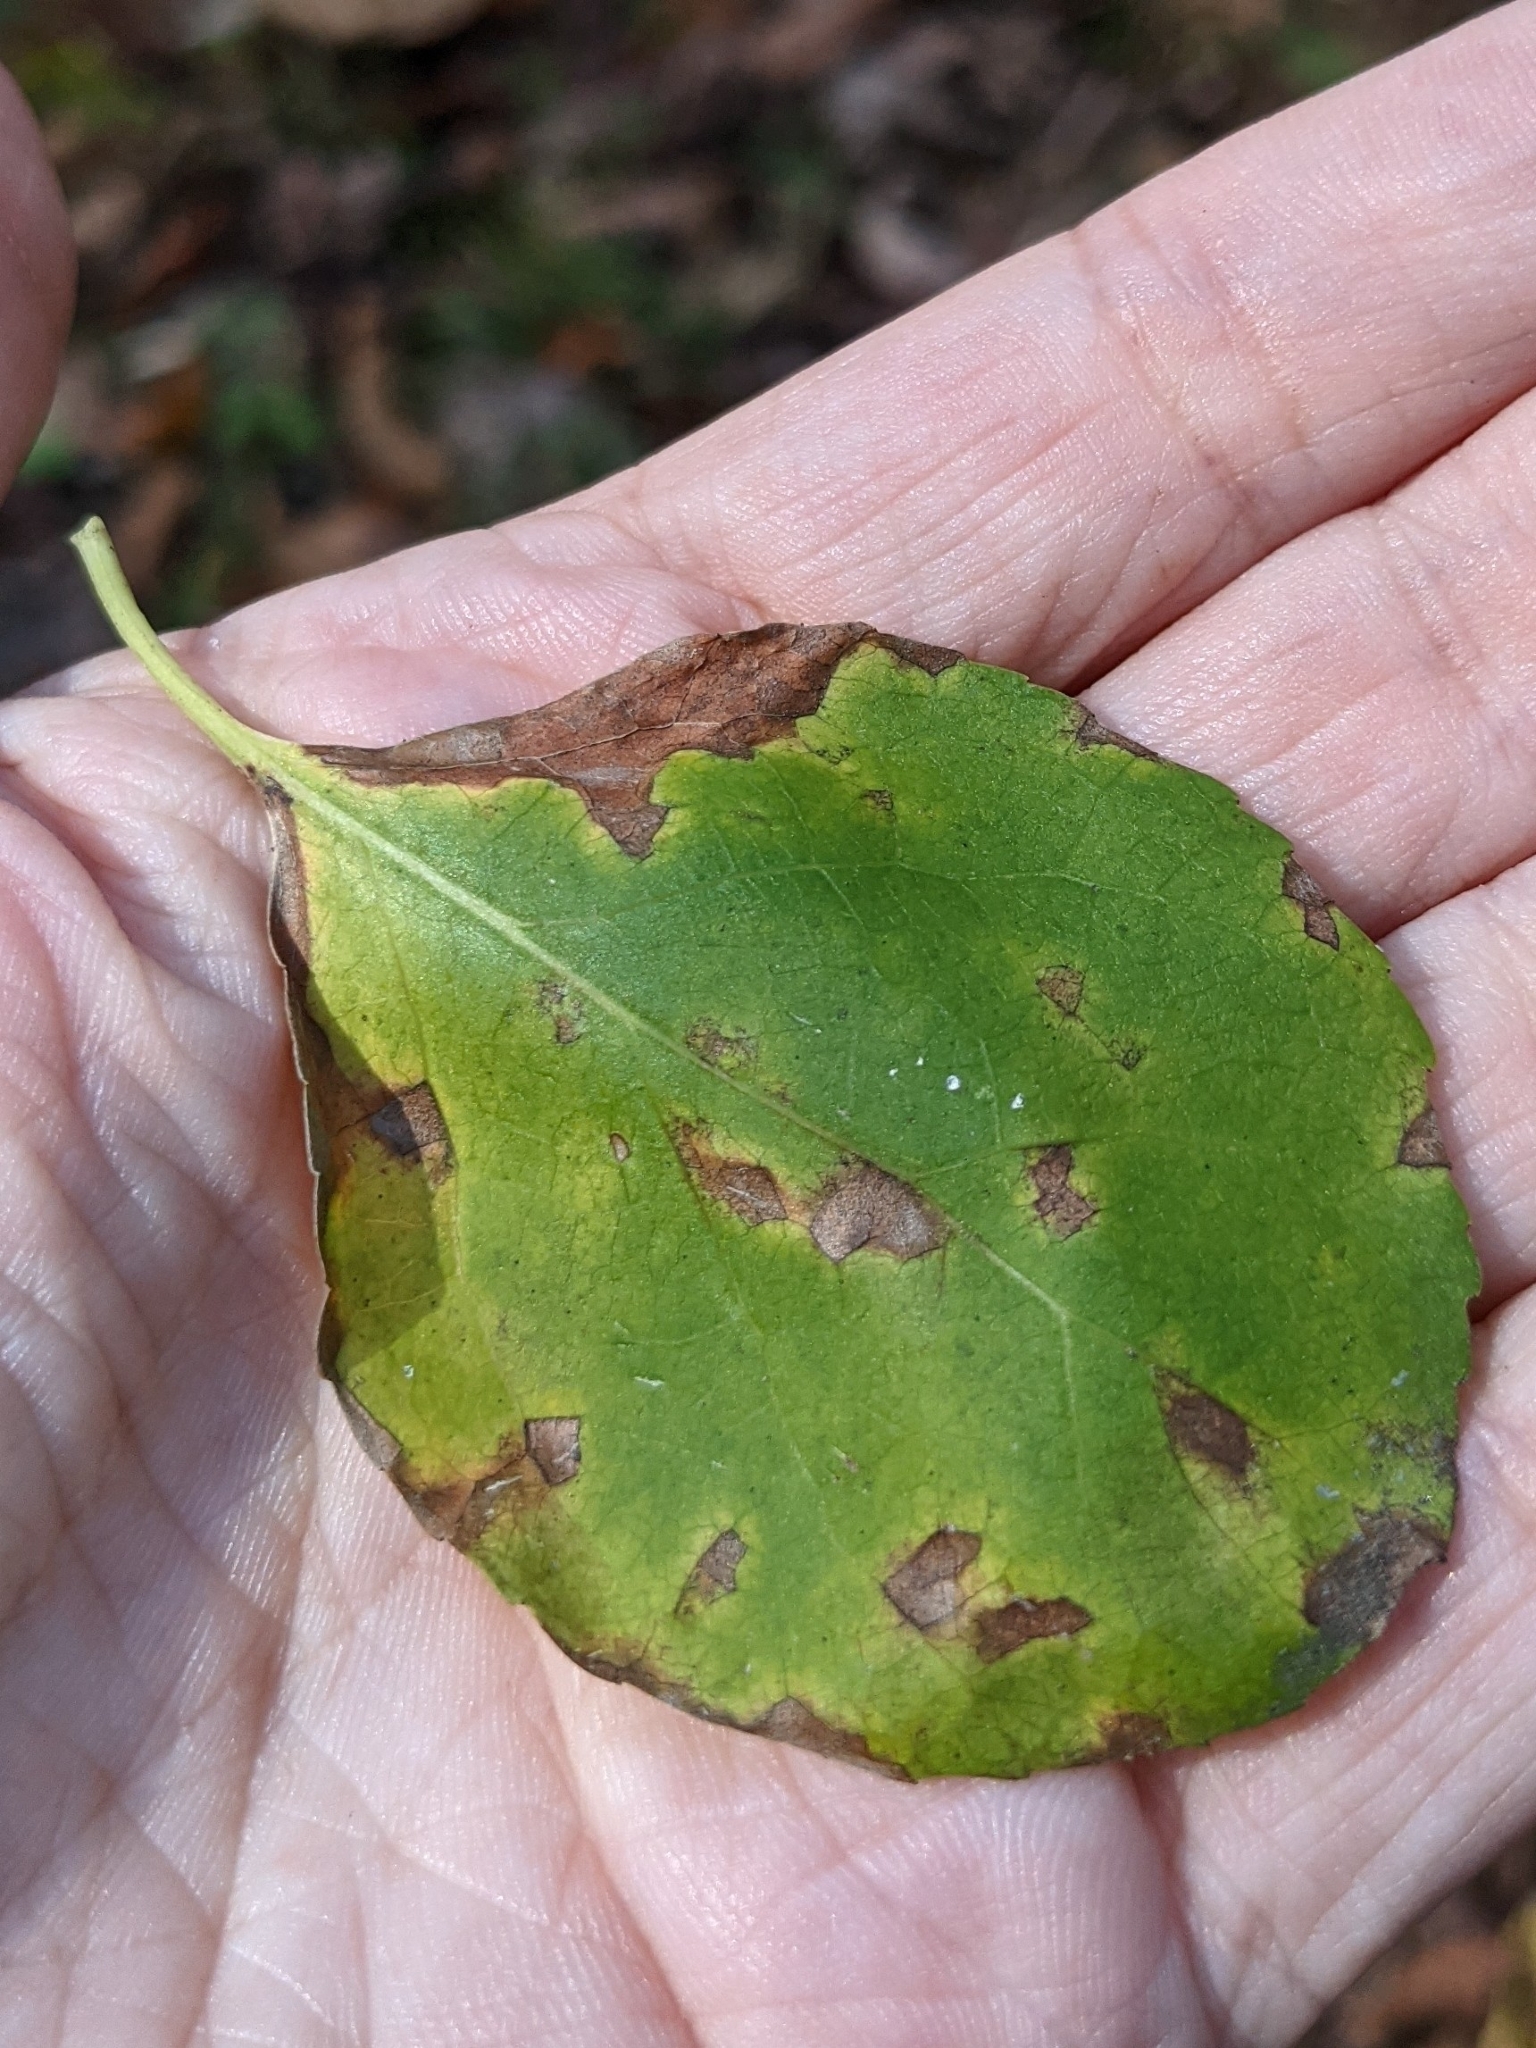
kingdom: Plantae
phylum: Tracheophyta
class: Magnoliopsida
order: Celastrales
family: Celastraceae
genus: Celastrus
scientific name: Celastrus orbiculatus
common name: Oriental bittersweet
